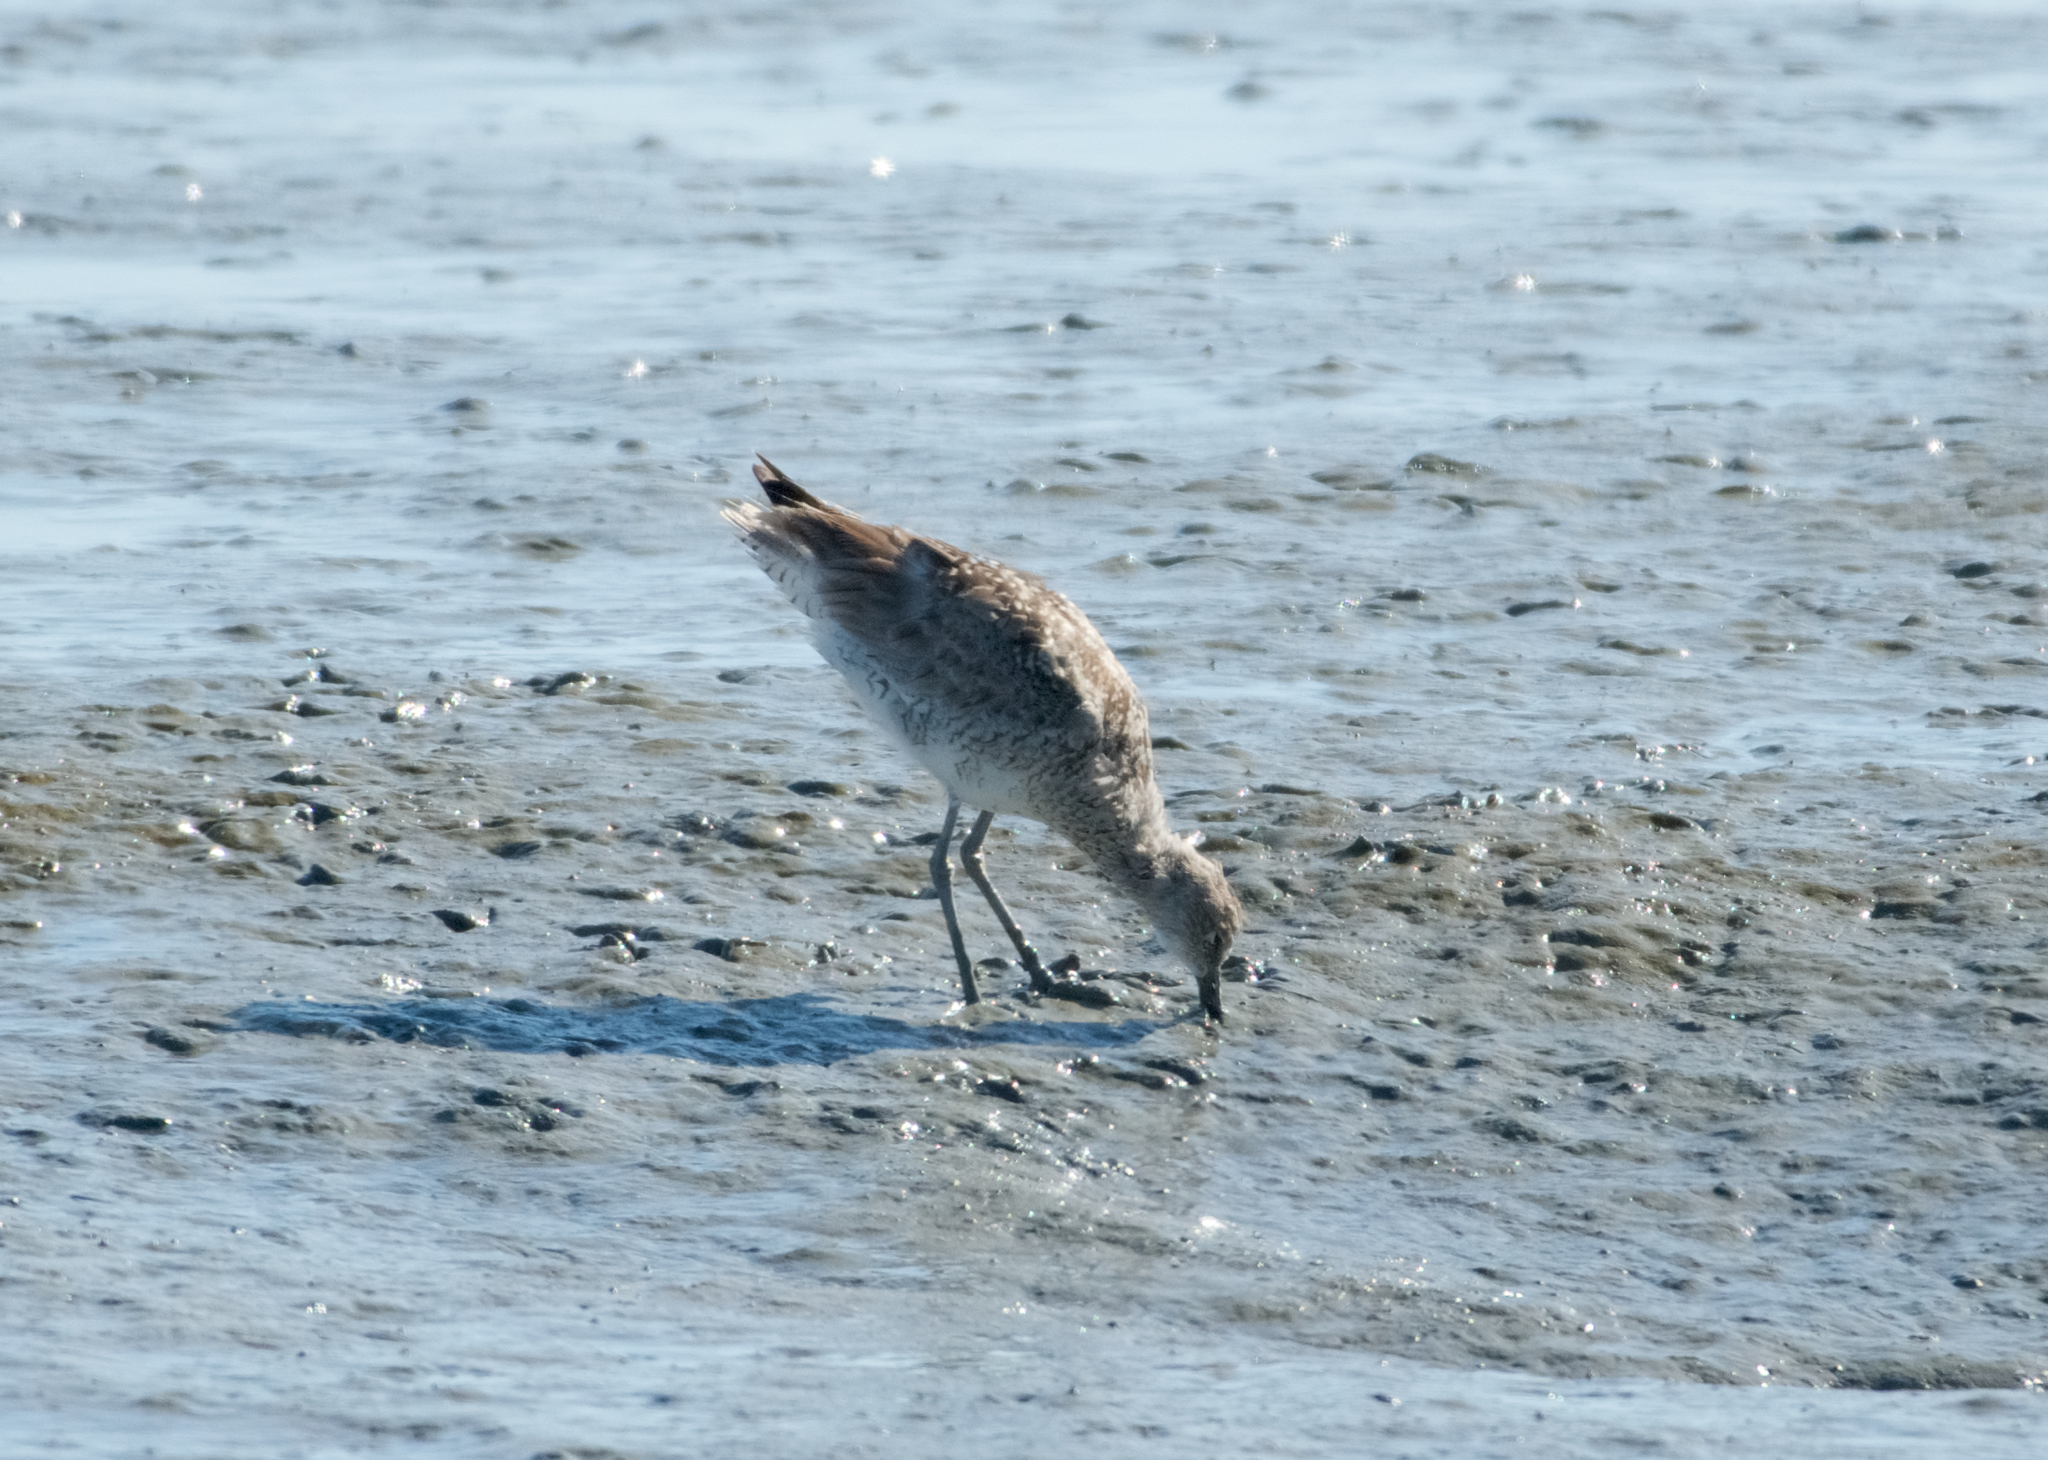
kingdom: Animalia
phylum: Chordata
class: Aves
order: Charadriiformes
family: Scolopacidae
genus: Tringa
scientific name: Tringa semipalmata
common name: Willet
